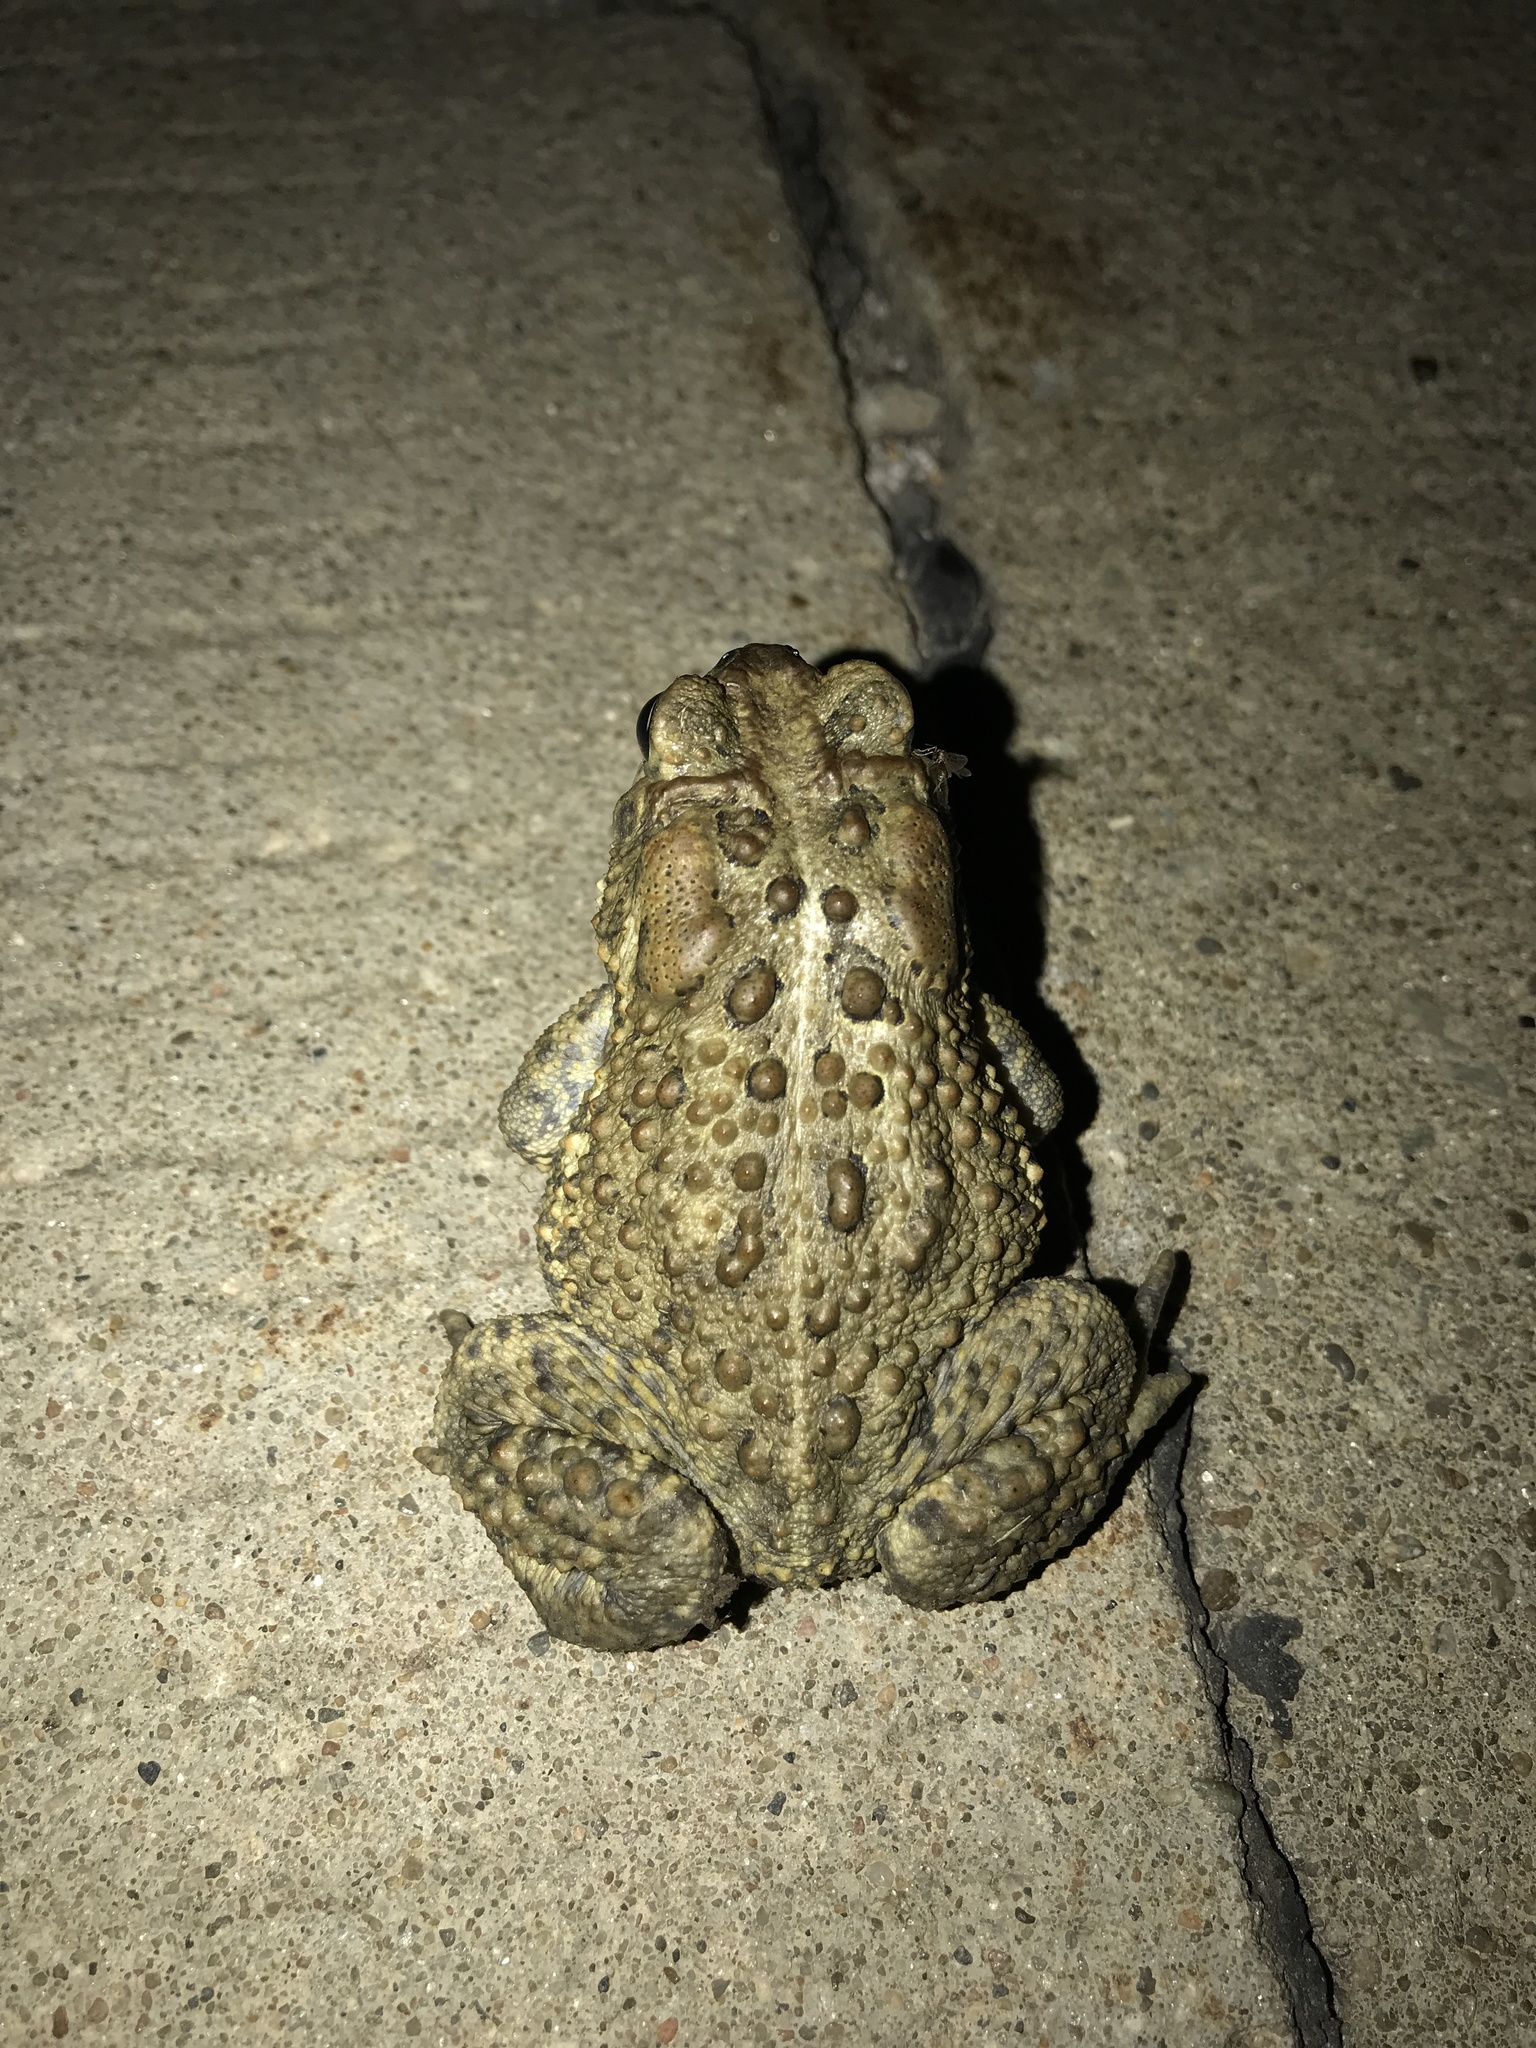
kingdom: Animalia
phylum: Chordata
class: Amphibia
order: Anura
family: Bufonidae
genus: Anaxyrus
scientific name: Anaxyrus americanus
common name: American toad
